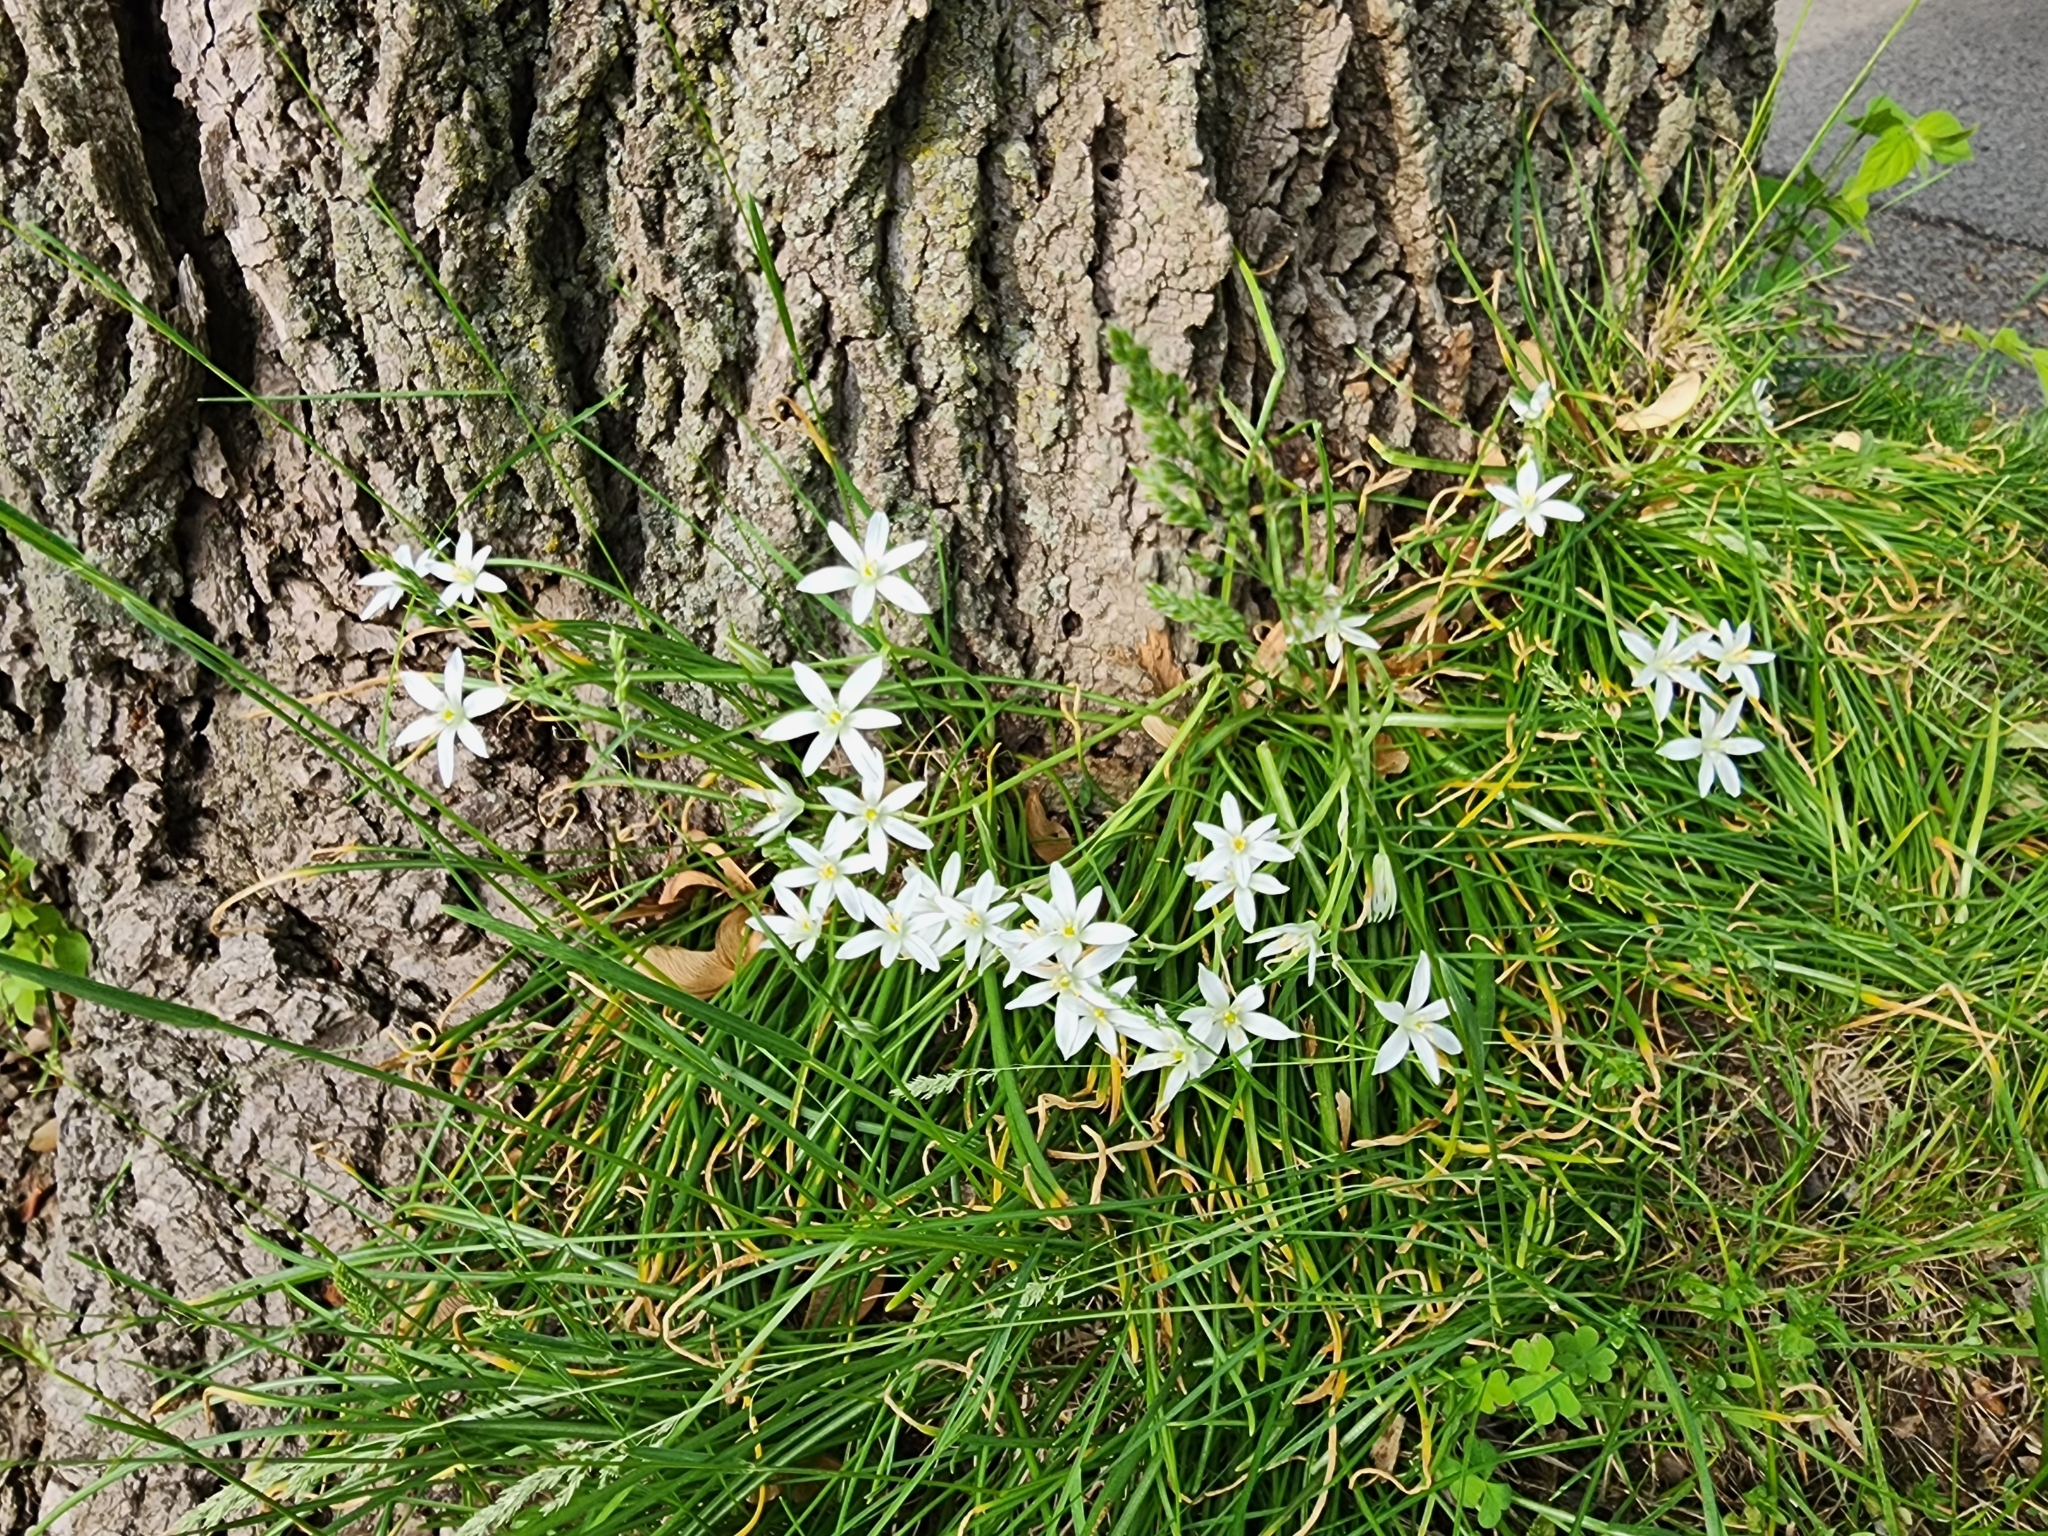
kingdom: Plantae
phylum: Tracheophyta
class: Liliopsida
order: Asparagales
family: Asparagaceae
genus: Ornithogalum
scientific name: Ornithogalum umbellatum
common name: Garden star-of-bethlehem
